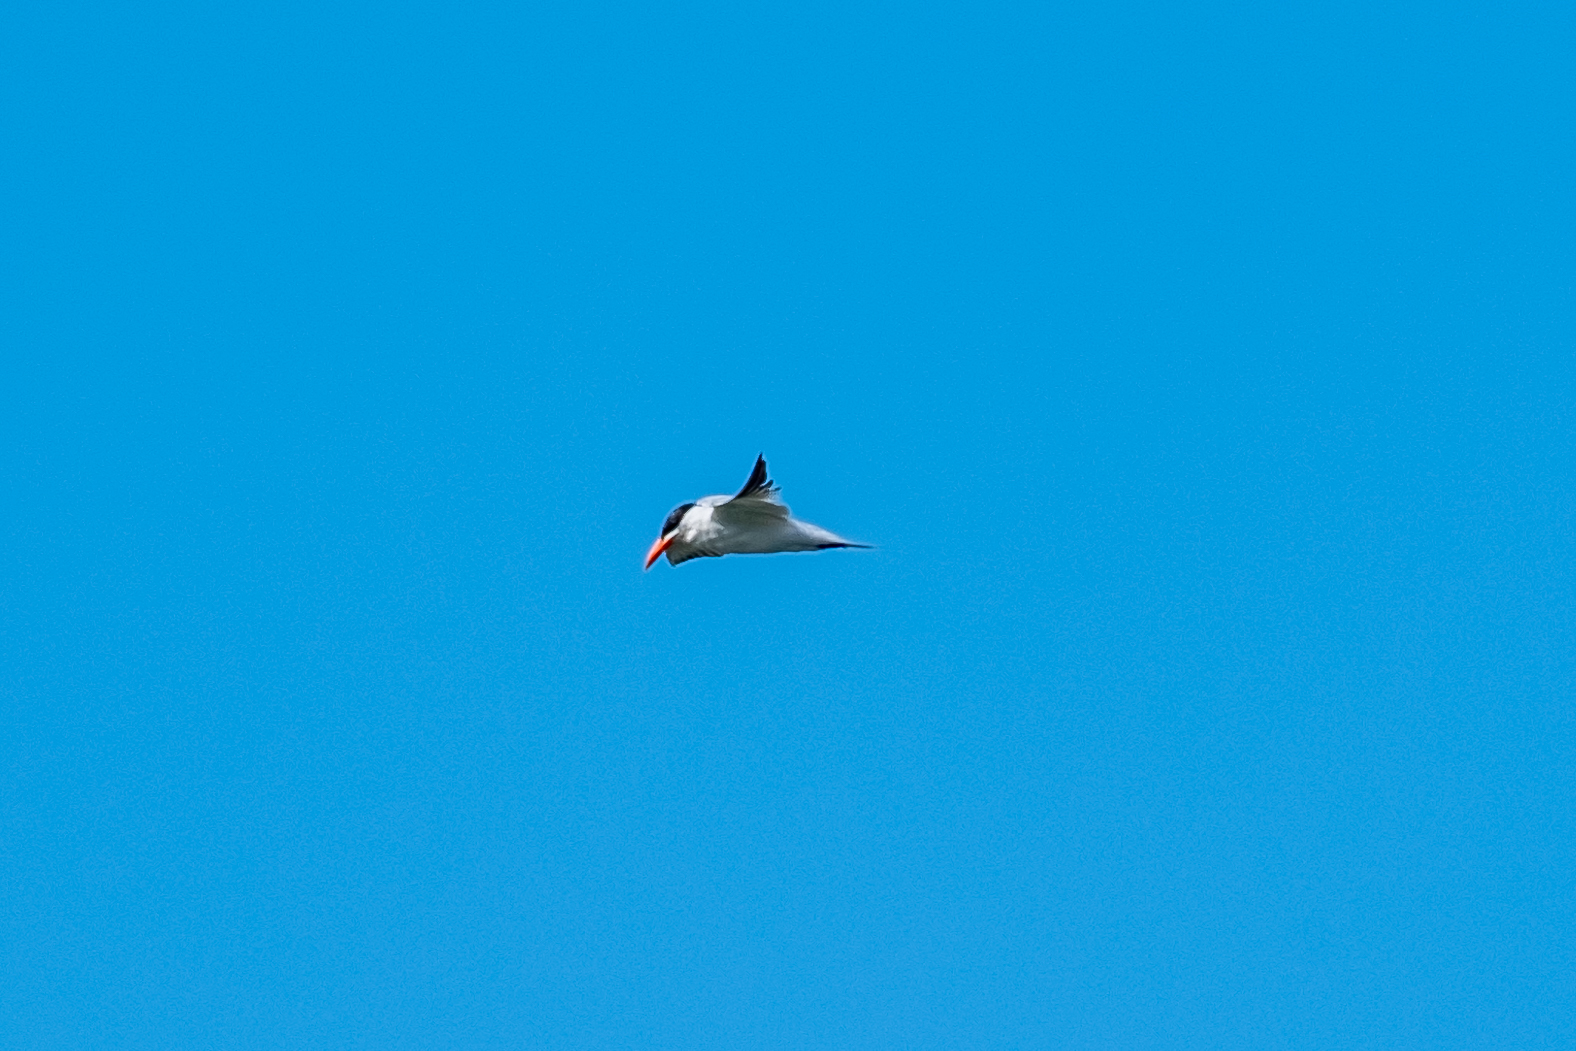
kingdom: Animalia
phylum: Chordata
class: Aves
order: Charadriiformes
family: Laridae
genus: Hydroprogne
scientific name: Hydroprogne caspia
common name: Caspian tern
